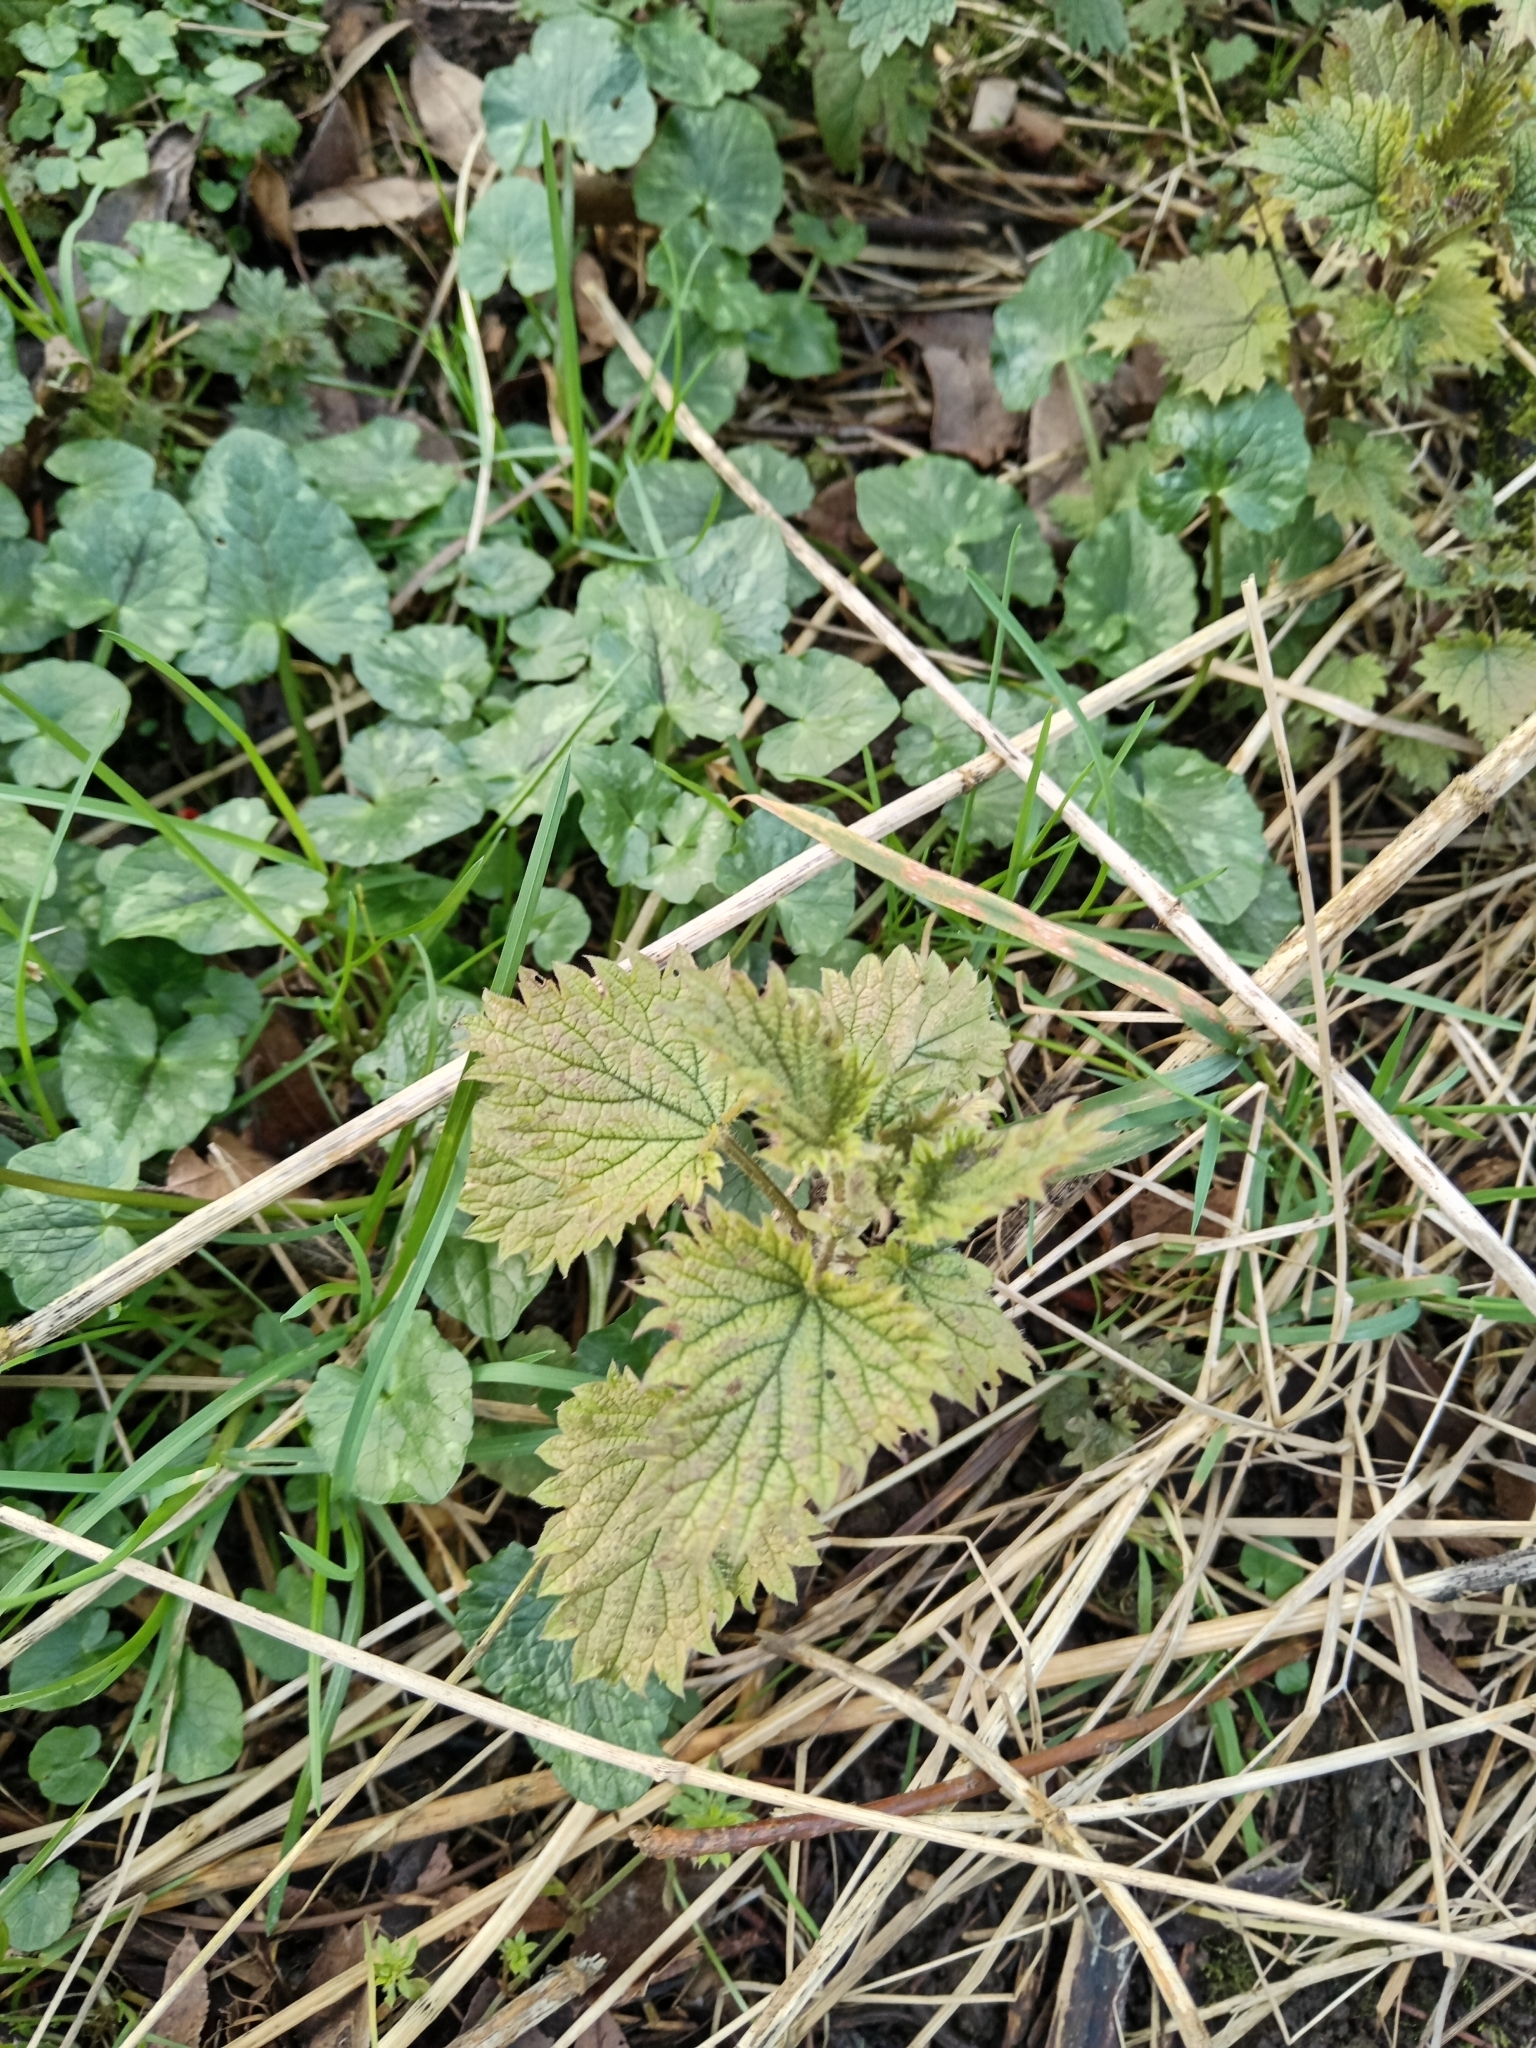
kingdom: Plantae
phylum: Tracheophyta
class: Magnoliopsida
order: Rosales
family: Urticaceae
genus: Urtica
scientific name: Urtica dioica
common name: Common nettle
